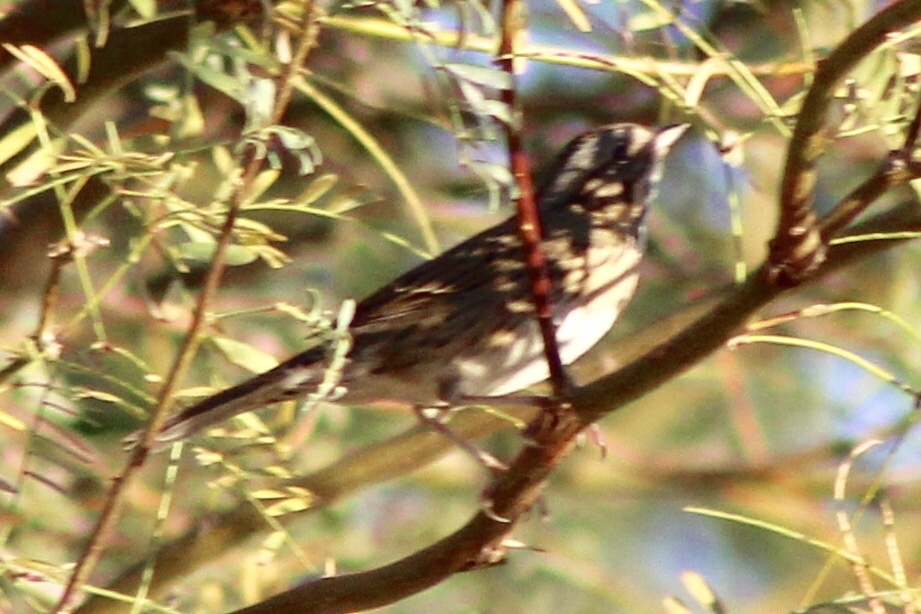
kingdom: Animalia
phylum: Chordata
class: Aves
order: Passeriformes
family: Passerellidae
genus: Melospiza
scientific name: Melospiza lincolnii
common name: Lincoln's sparrow
